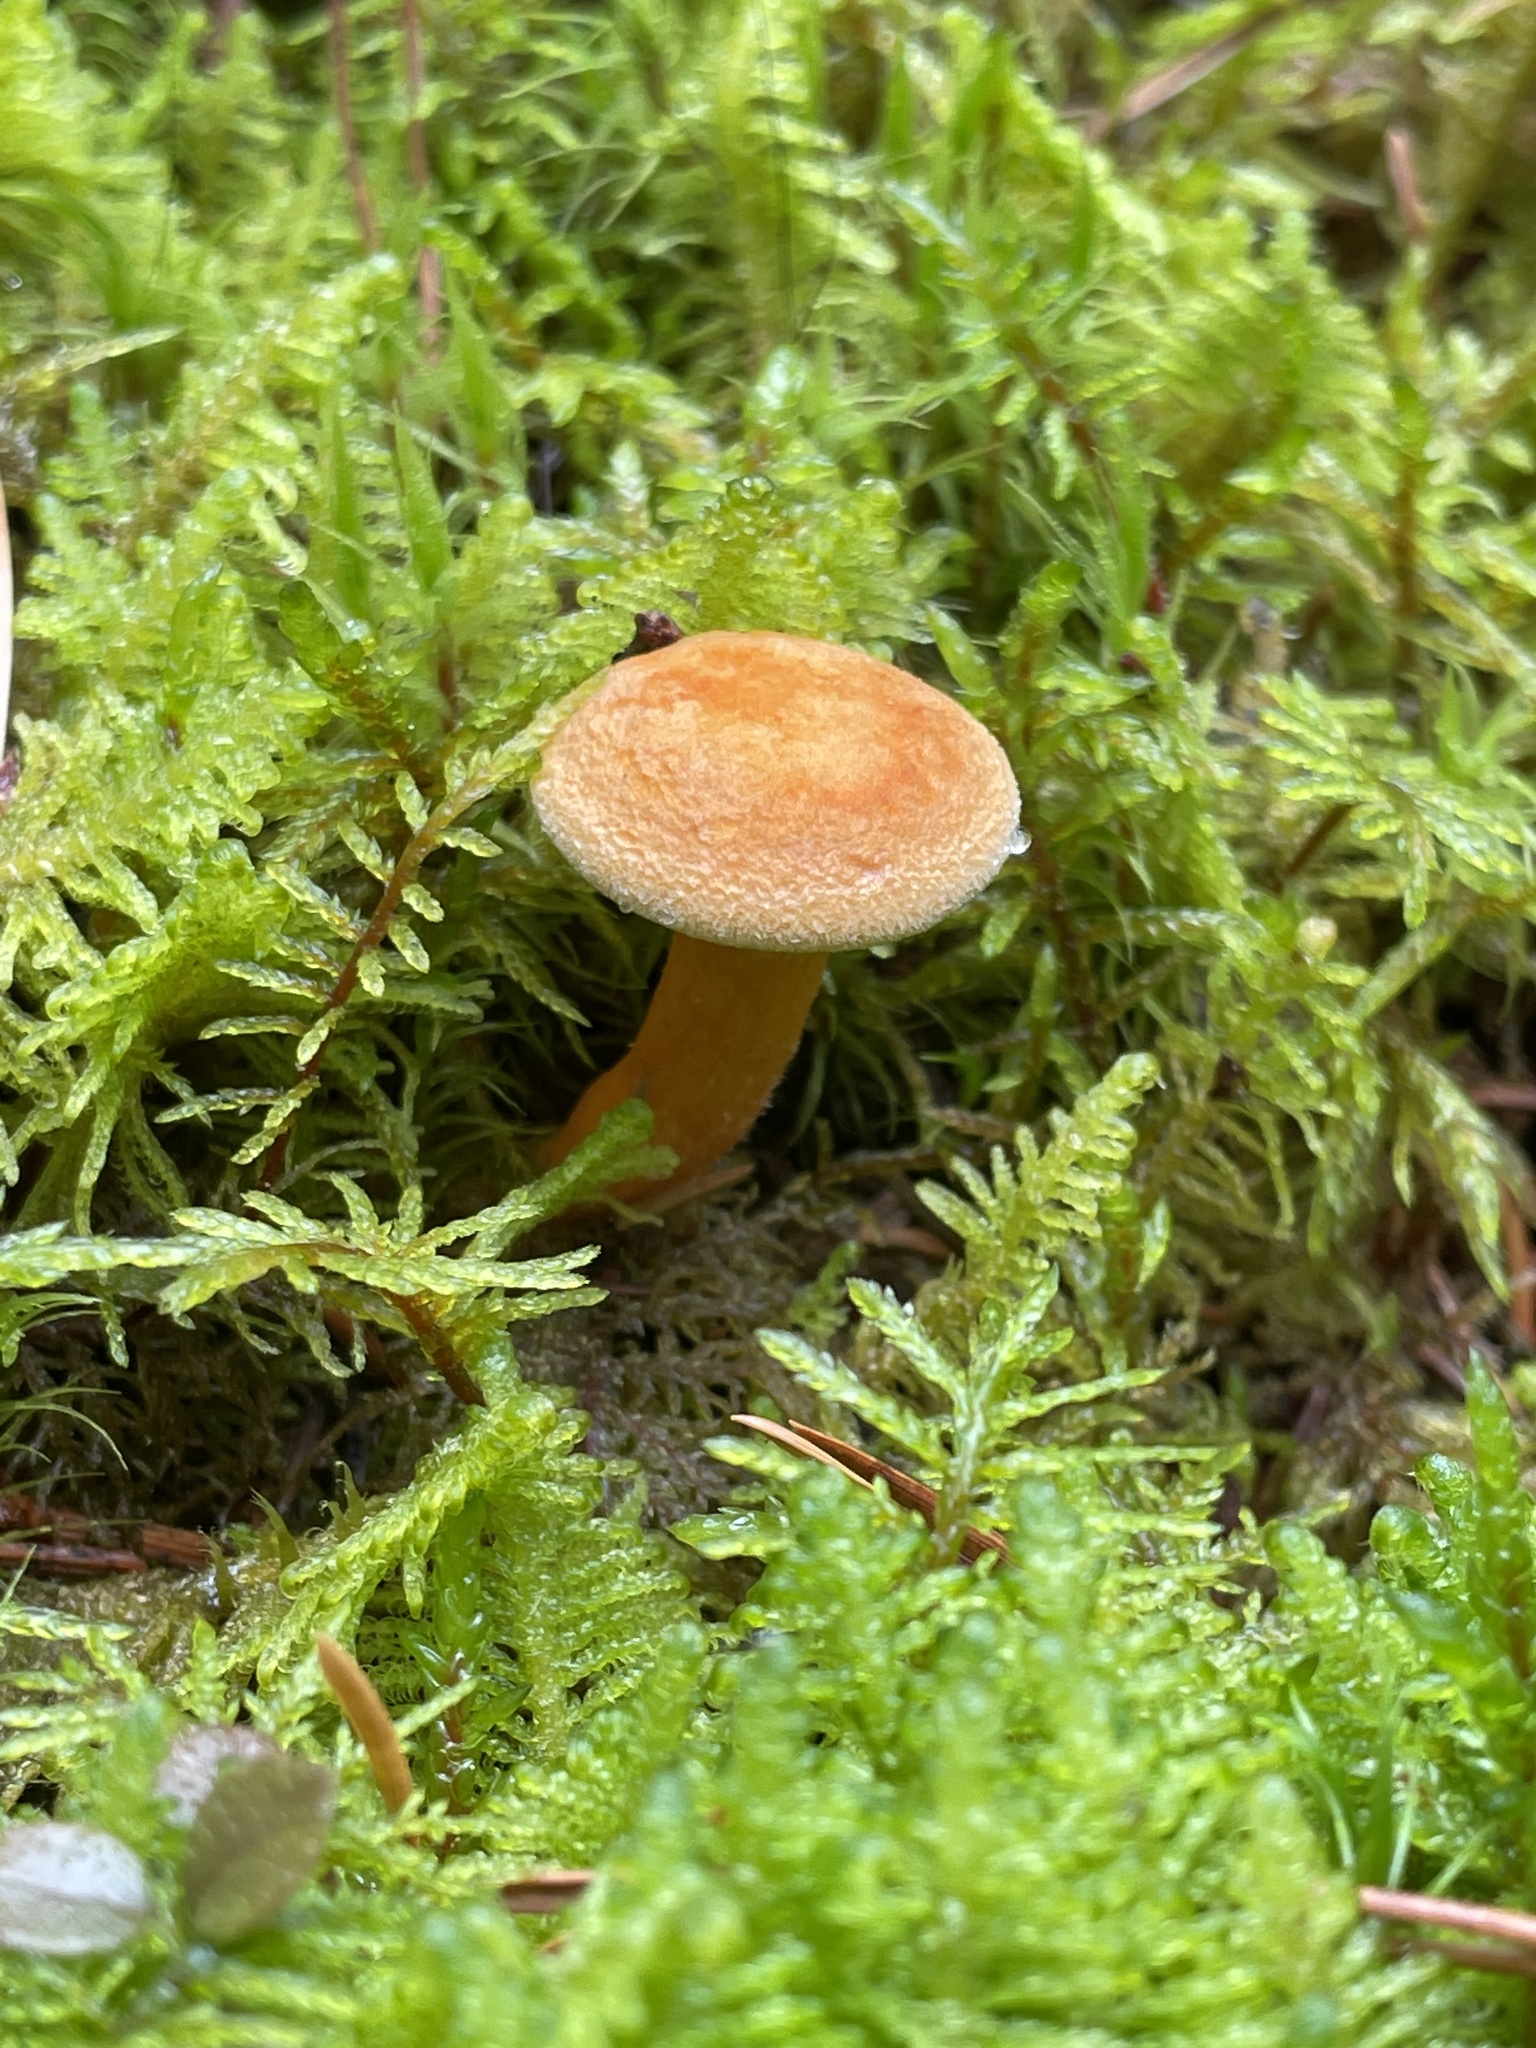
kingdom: Fungi
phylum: Basidiomycota
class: Agaricomycetes
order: Boletales
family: Hygrophoropsidaceae
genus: Hygrophoropsis
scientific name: Hygrophoropsis aurantiaca
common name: False chanterelle
